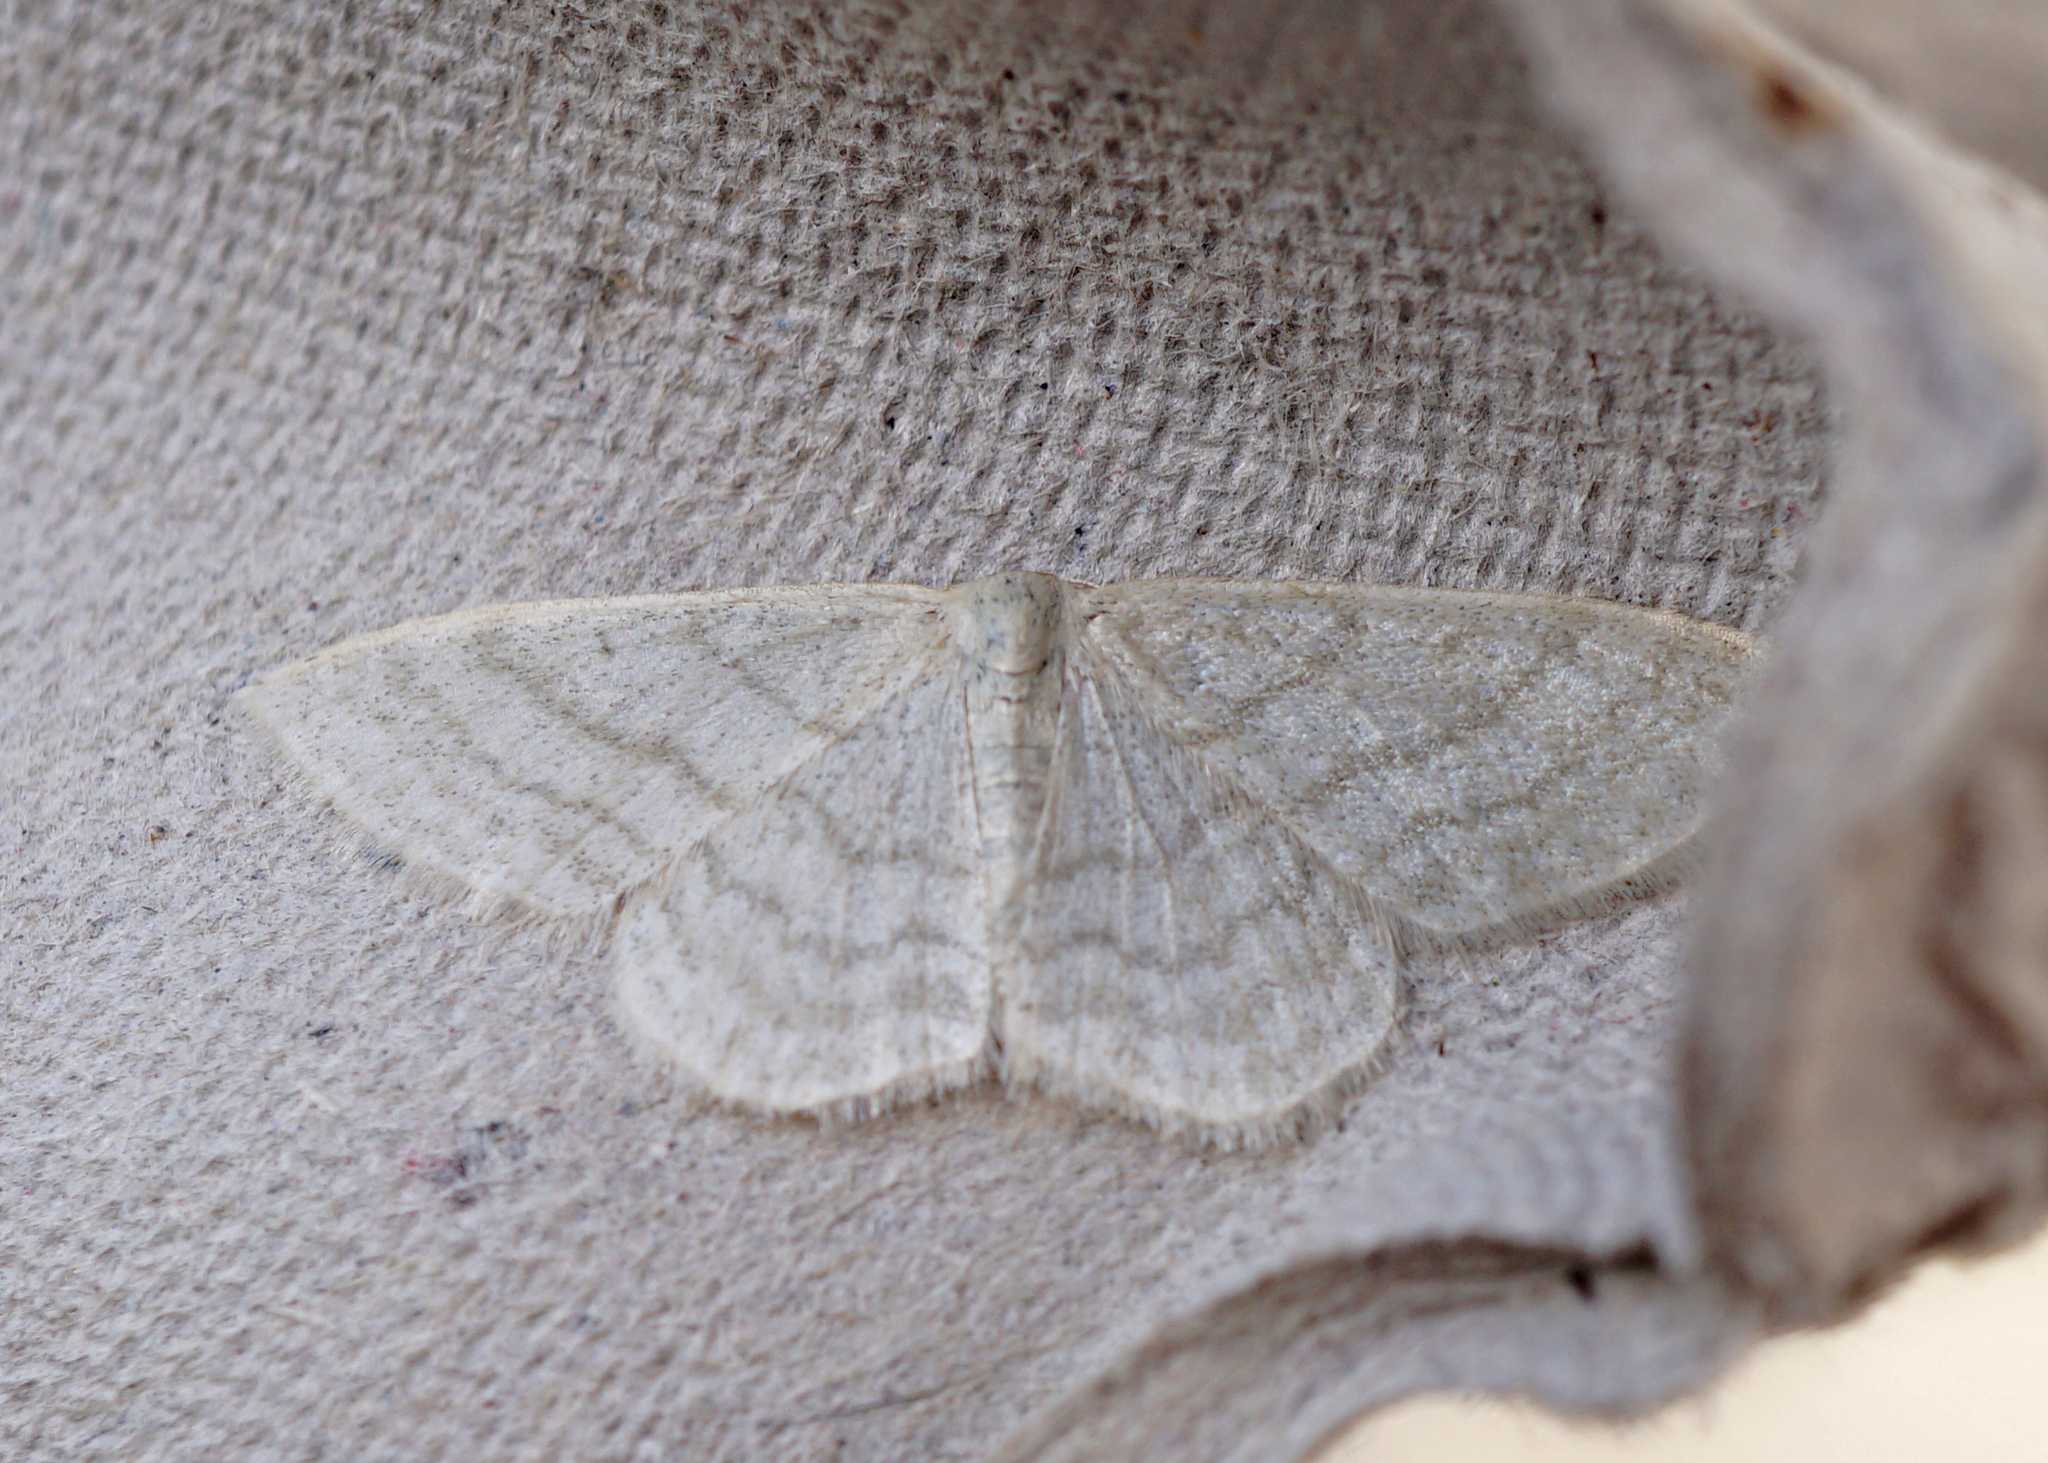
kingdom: Animalia
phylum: Arthropoda
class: Insecta
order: Lepidoptera
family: Geometridae
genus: Idaea
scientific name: Idaea subsericeata
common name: Satin wave
